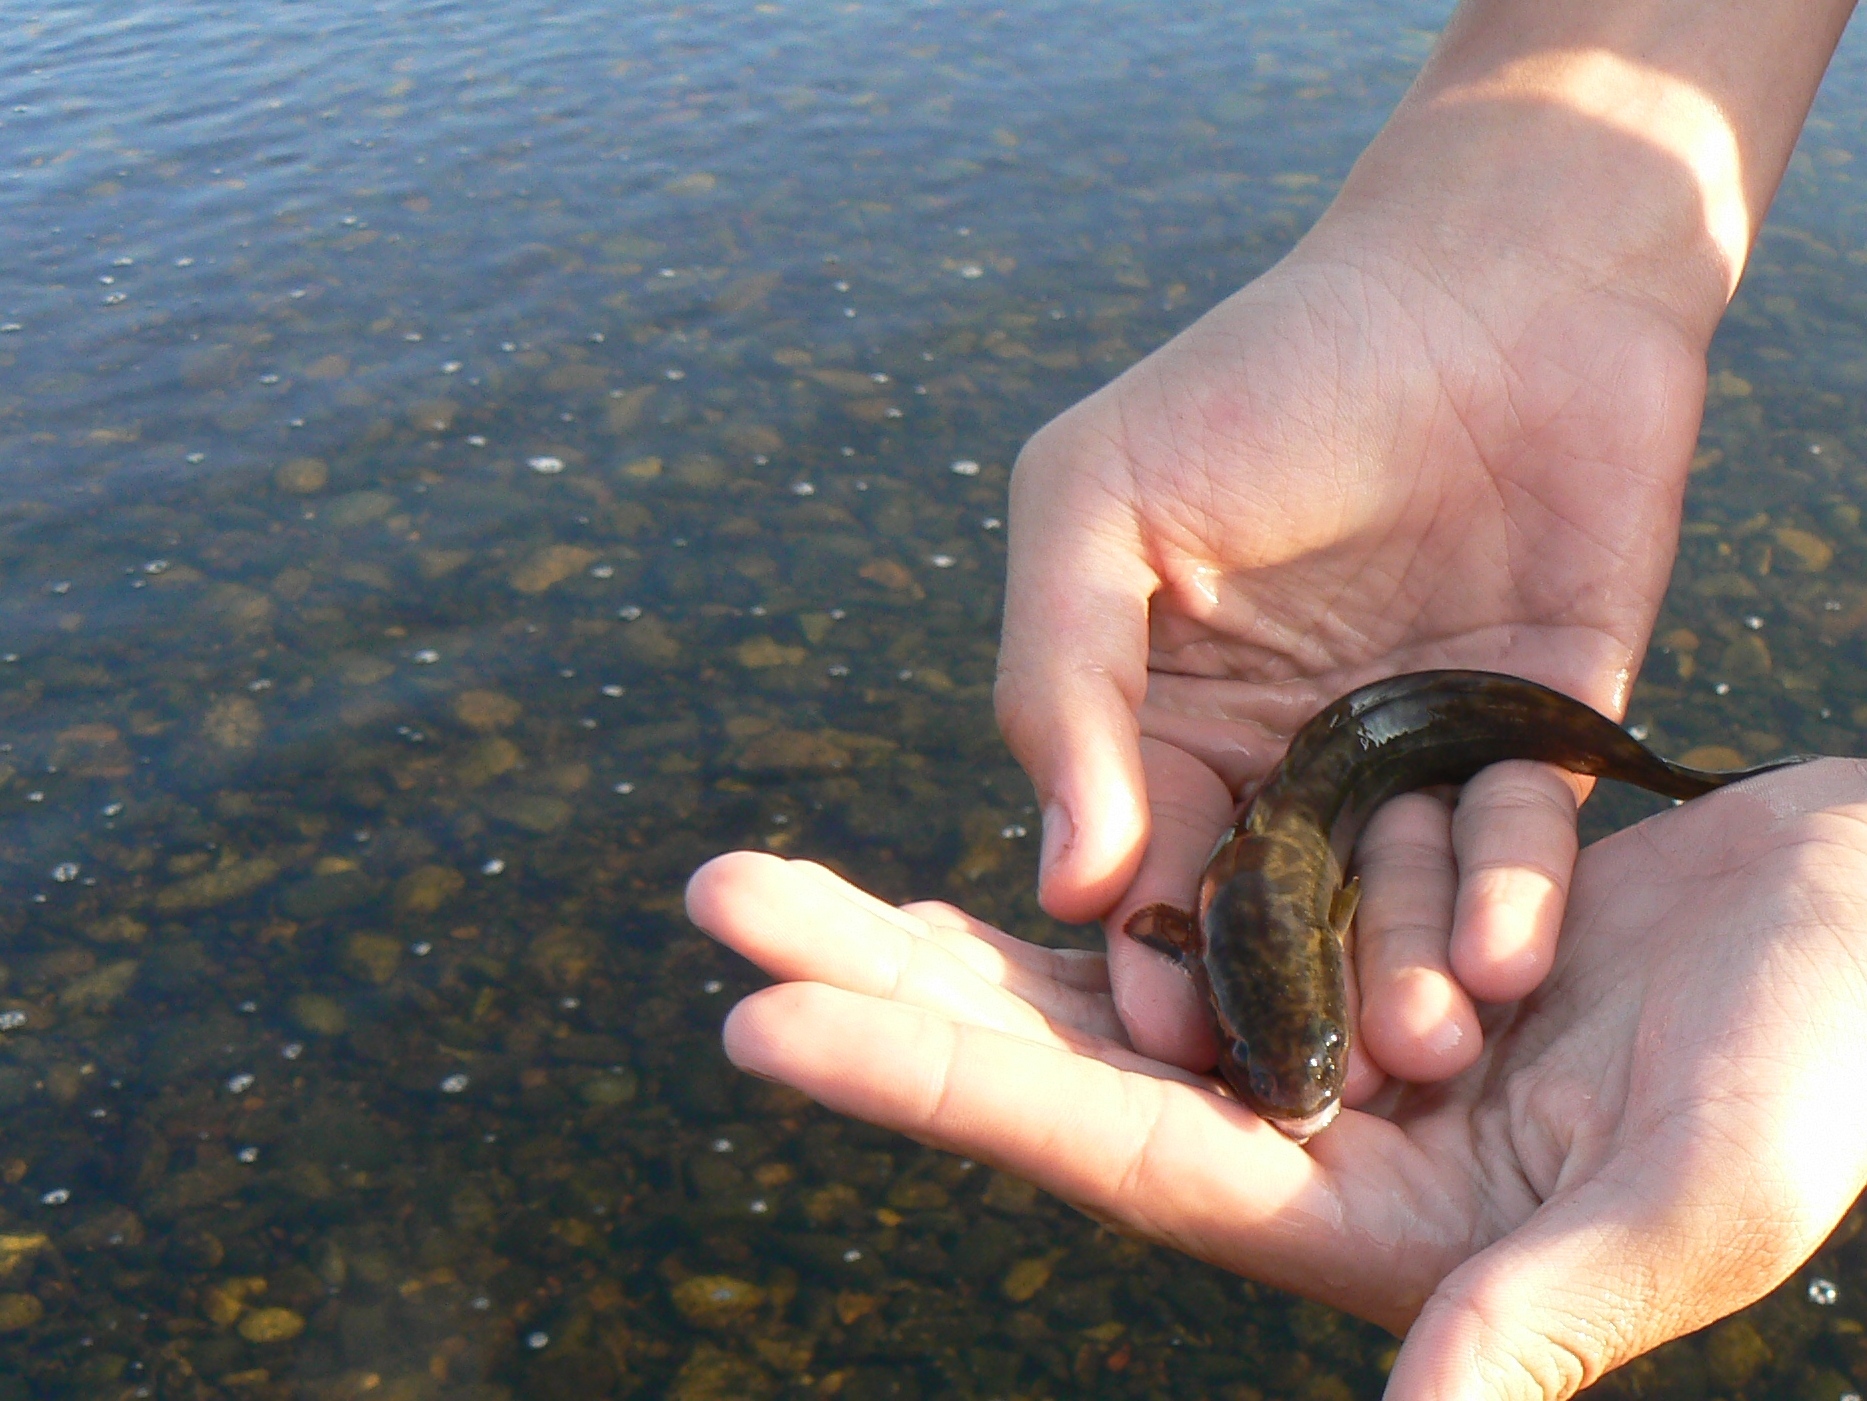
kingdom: Animalia
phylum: Chordata
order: Gadiformes
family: Lotidae
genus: Lota
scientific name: Lota lota
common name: Burbot
